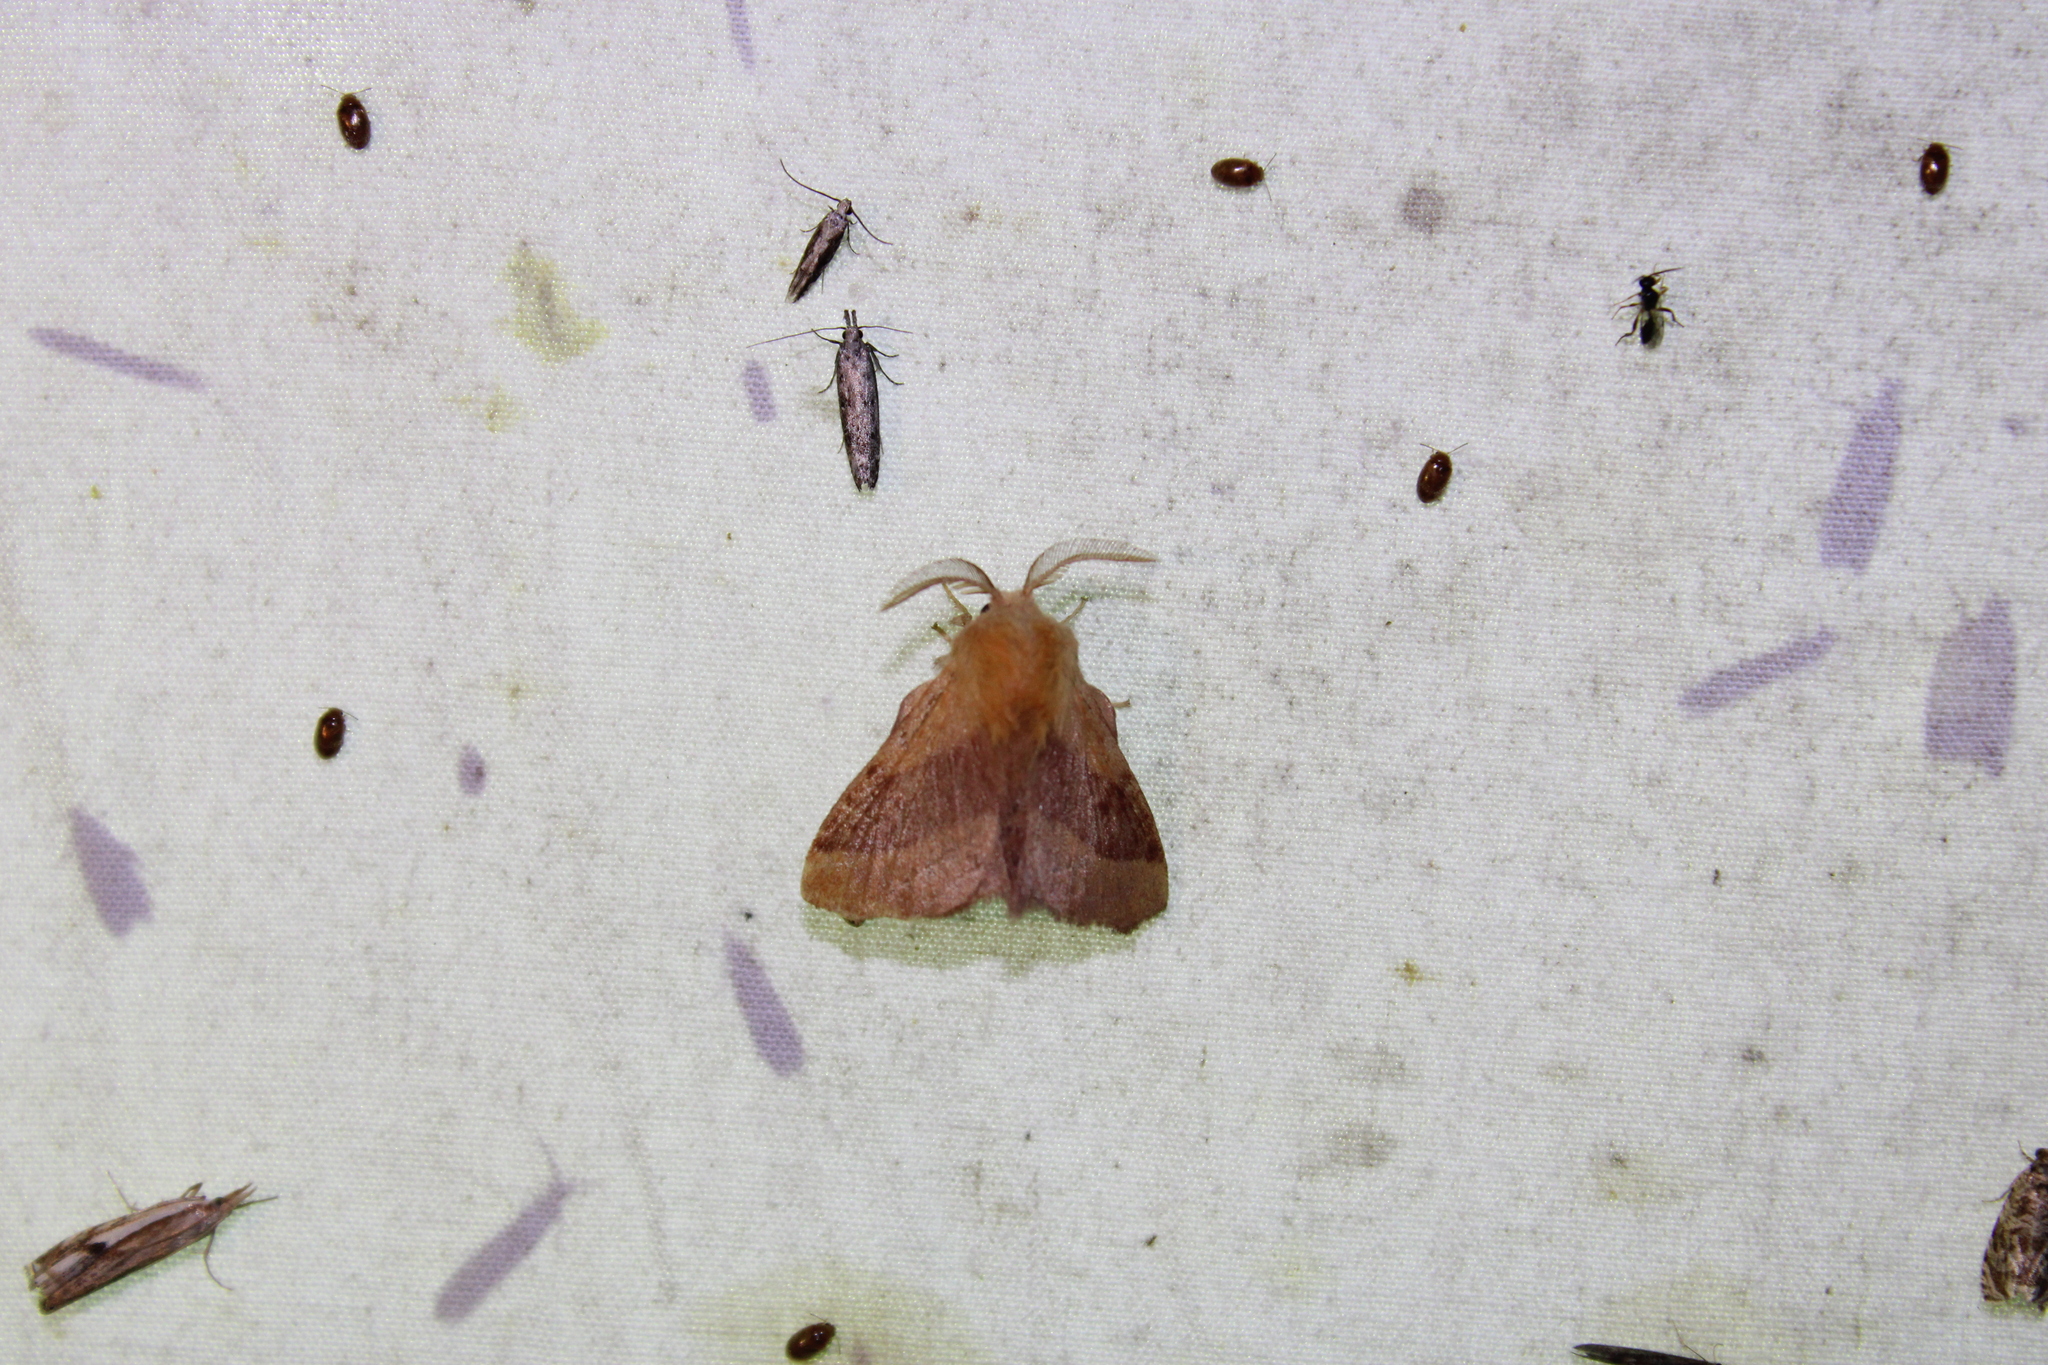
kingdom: Animalia
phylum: Arthropoda
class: Insecta
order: Lepidoptera
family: Lasiocampidae
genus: Malacosoma
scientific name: Malacosoma disstria
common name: Forest tent caterpillar
